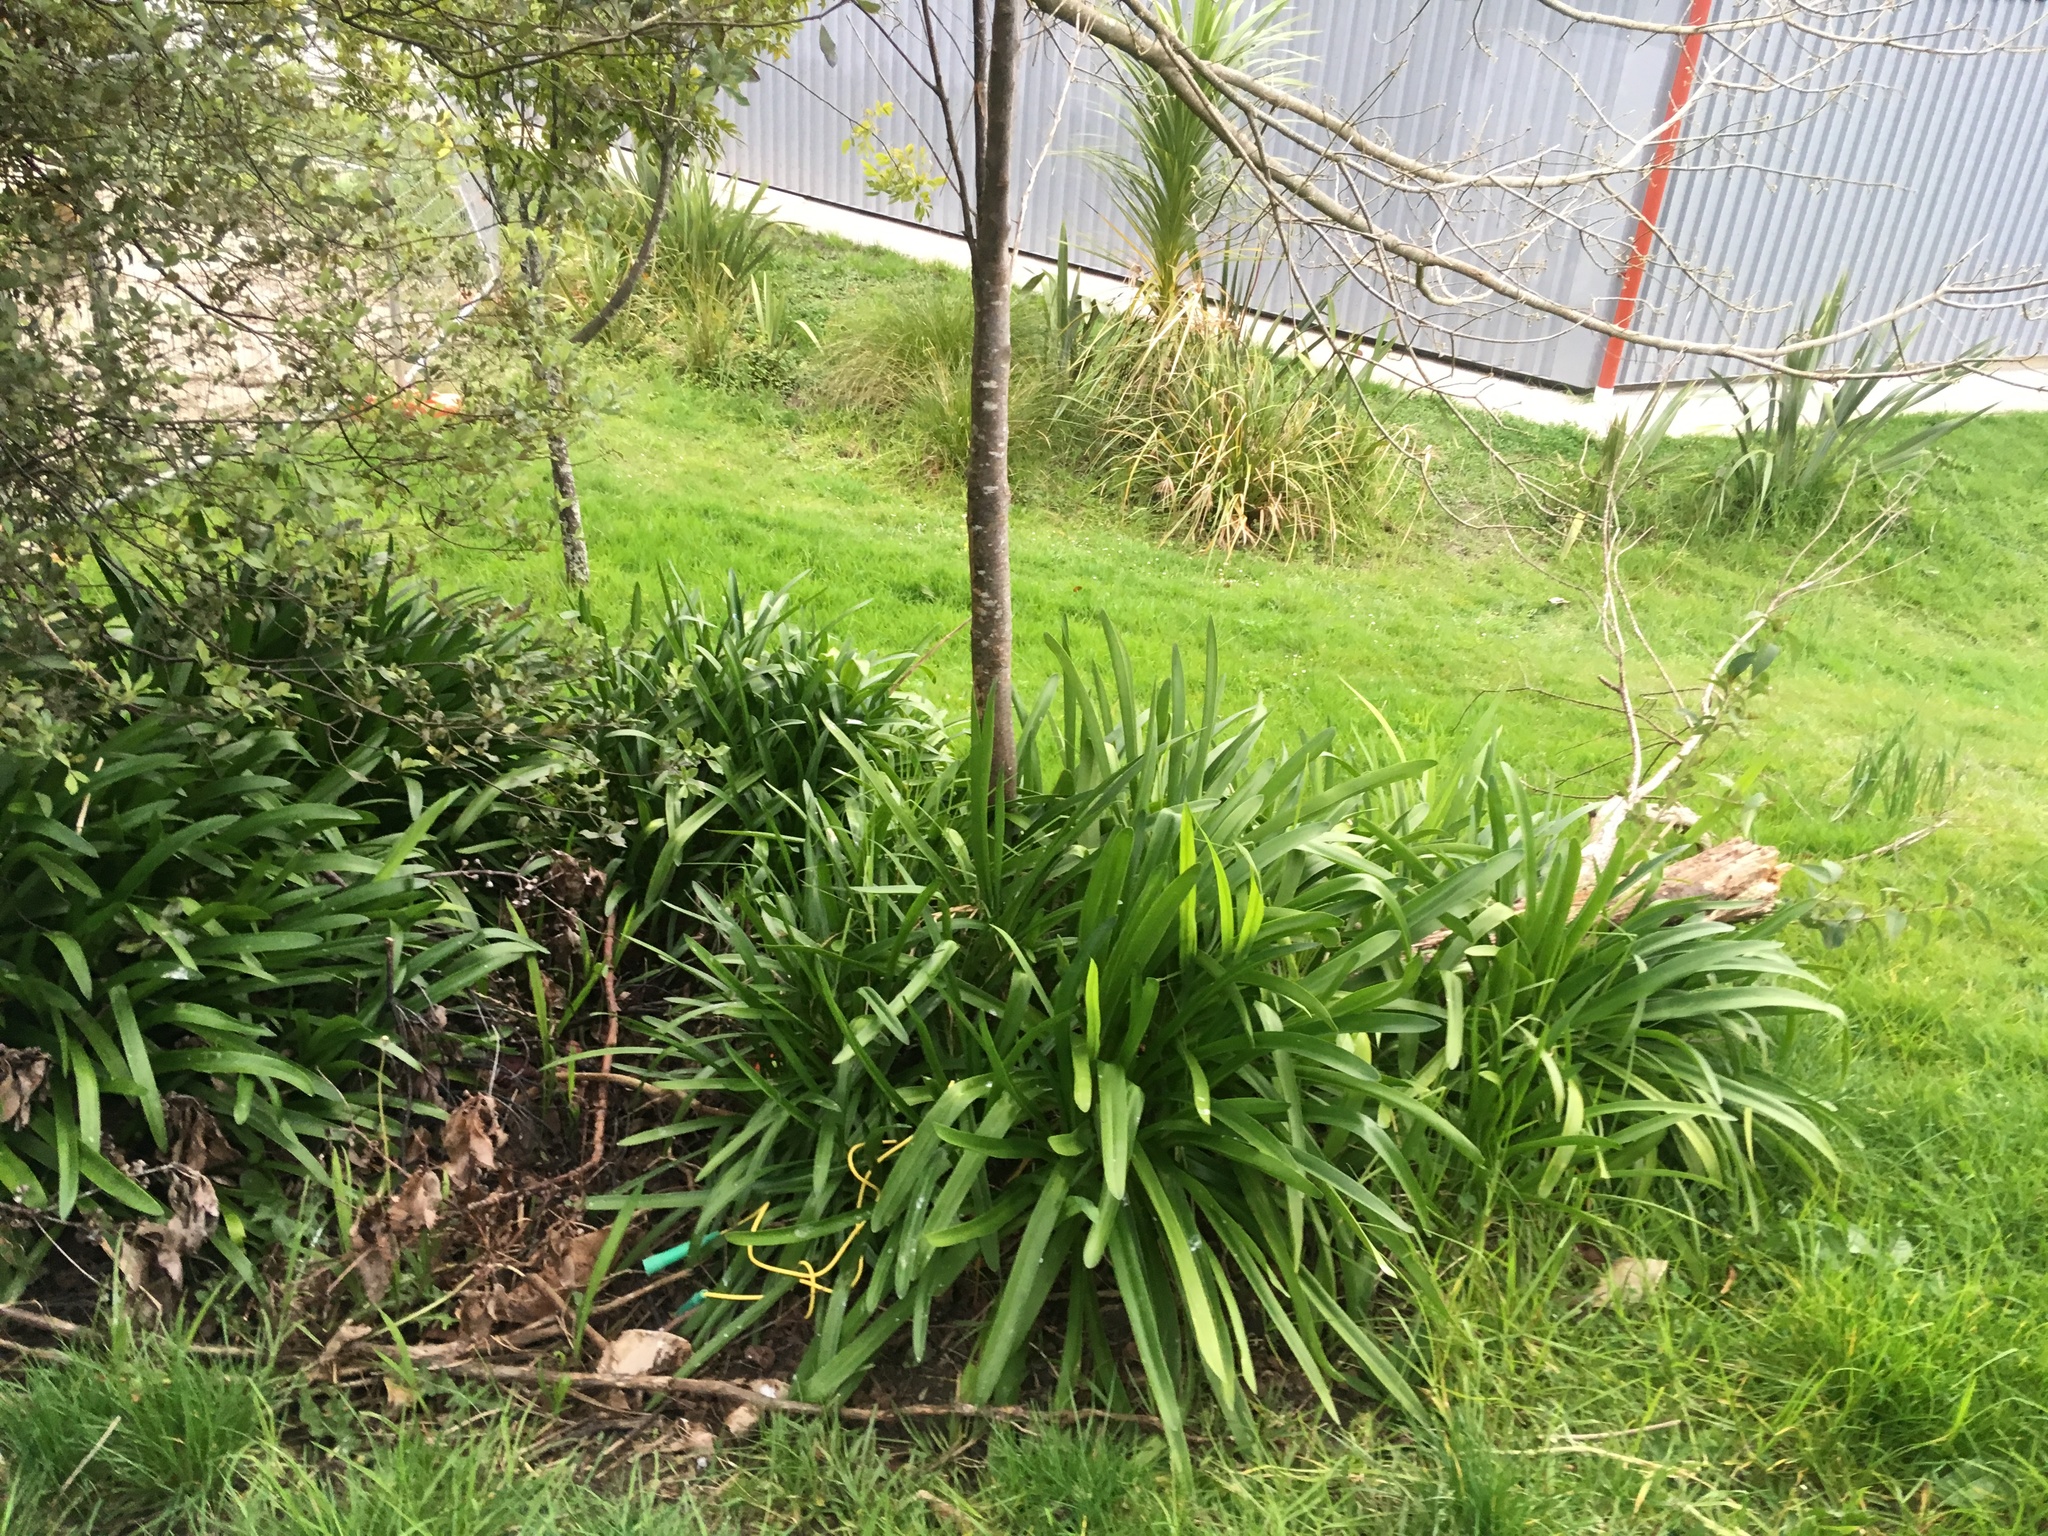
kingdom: Plantae
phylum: Tracheophyta
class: Liliopsida
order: Asparagales
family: Amaryllidaceae
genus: Agapanthus
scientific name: Agapanthus praecox
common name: African-lily
